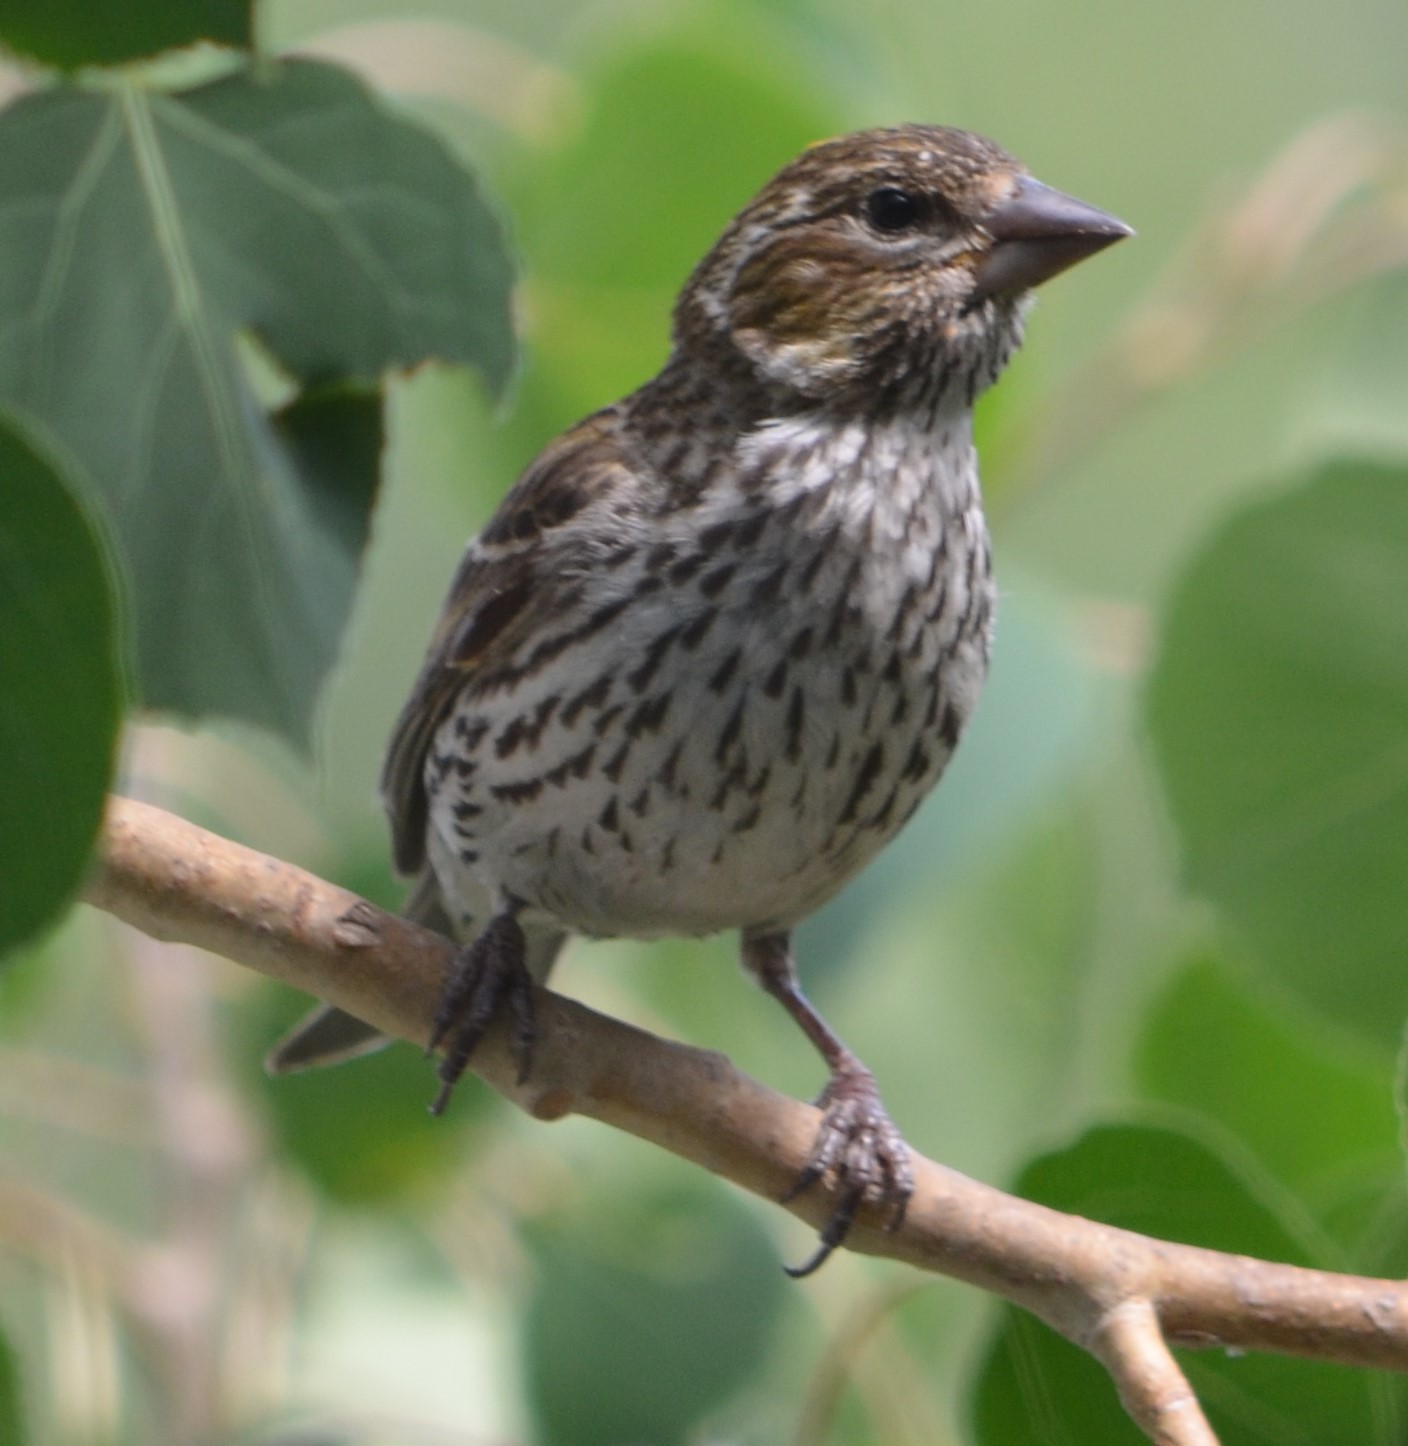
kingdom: Animalia
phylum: Chordata
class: Aves
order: Passeriformes
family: Fringillidae
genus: Haemorhous
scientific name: Haemorhous cassinii
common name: Cassin's finch
